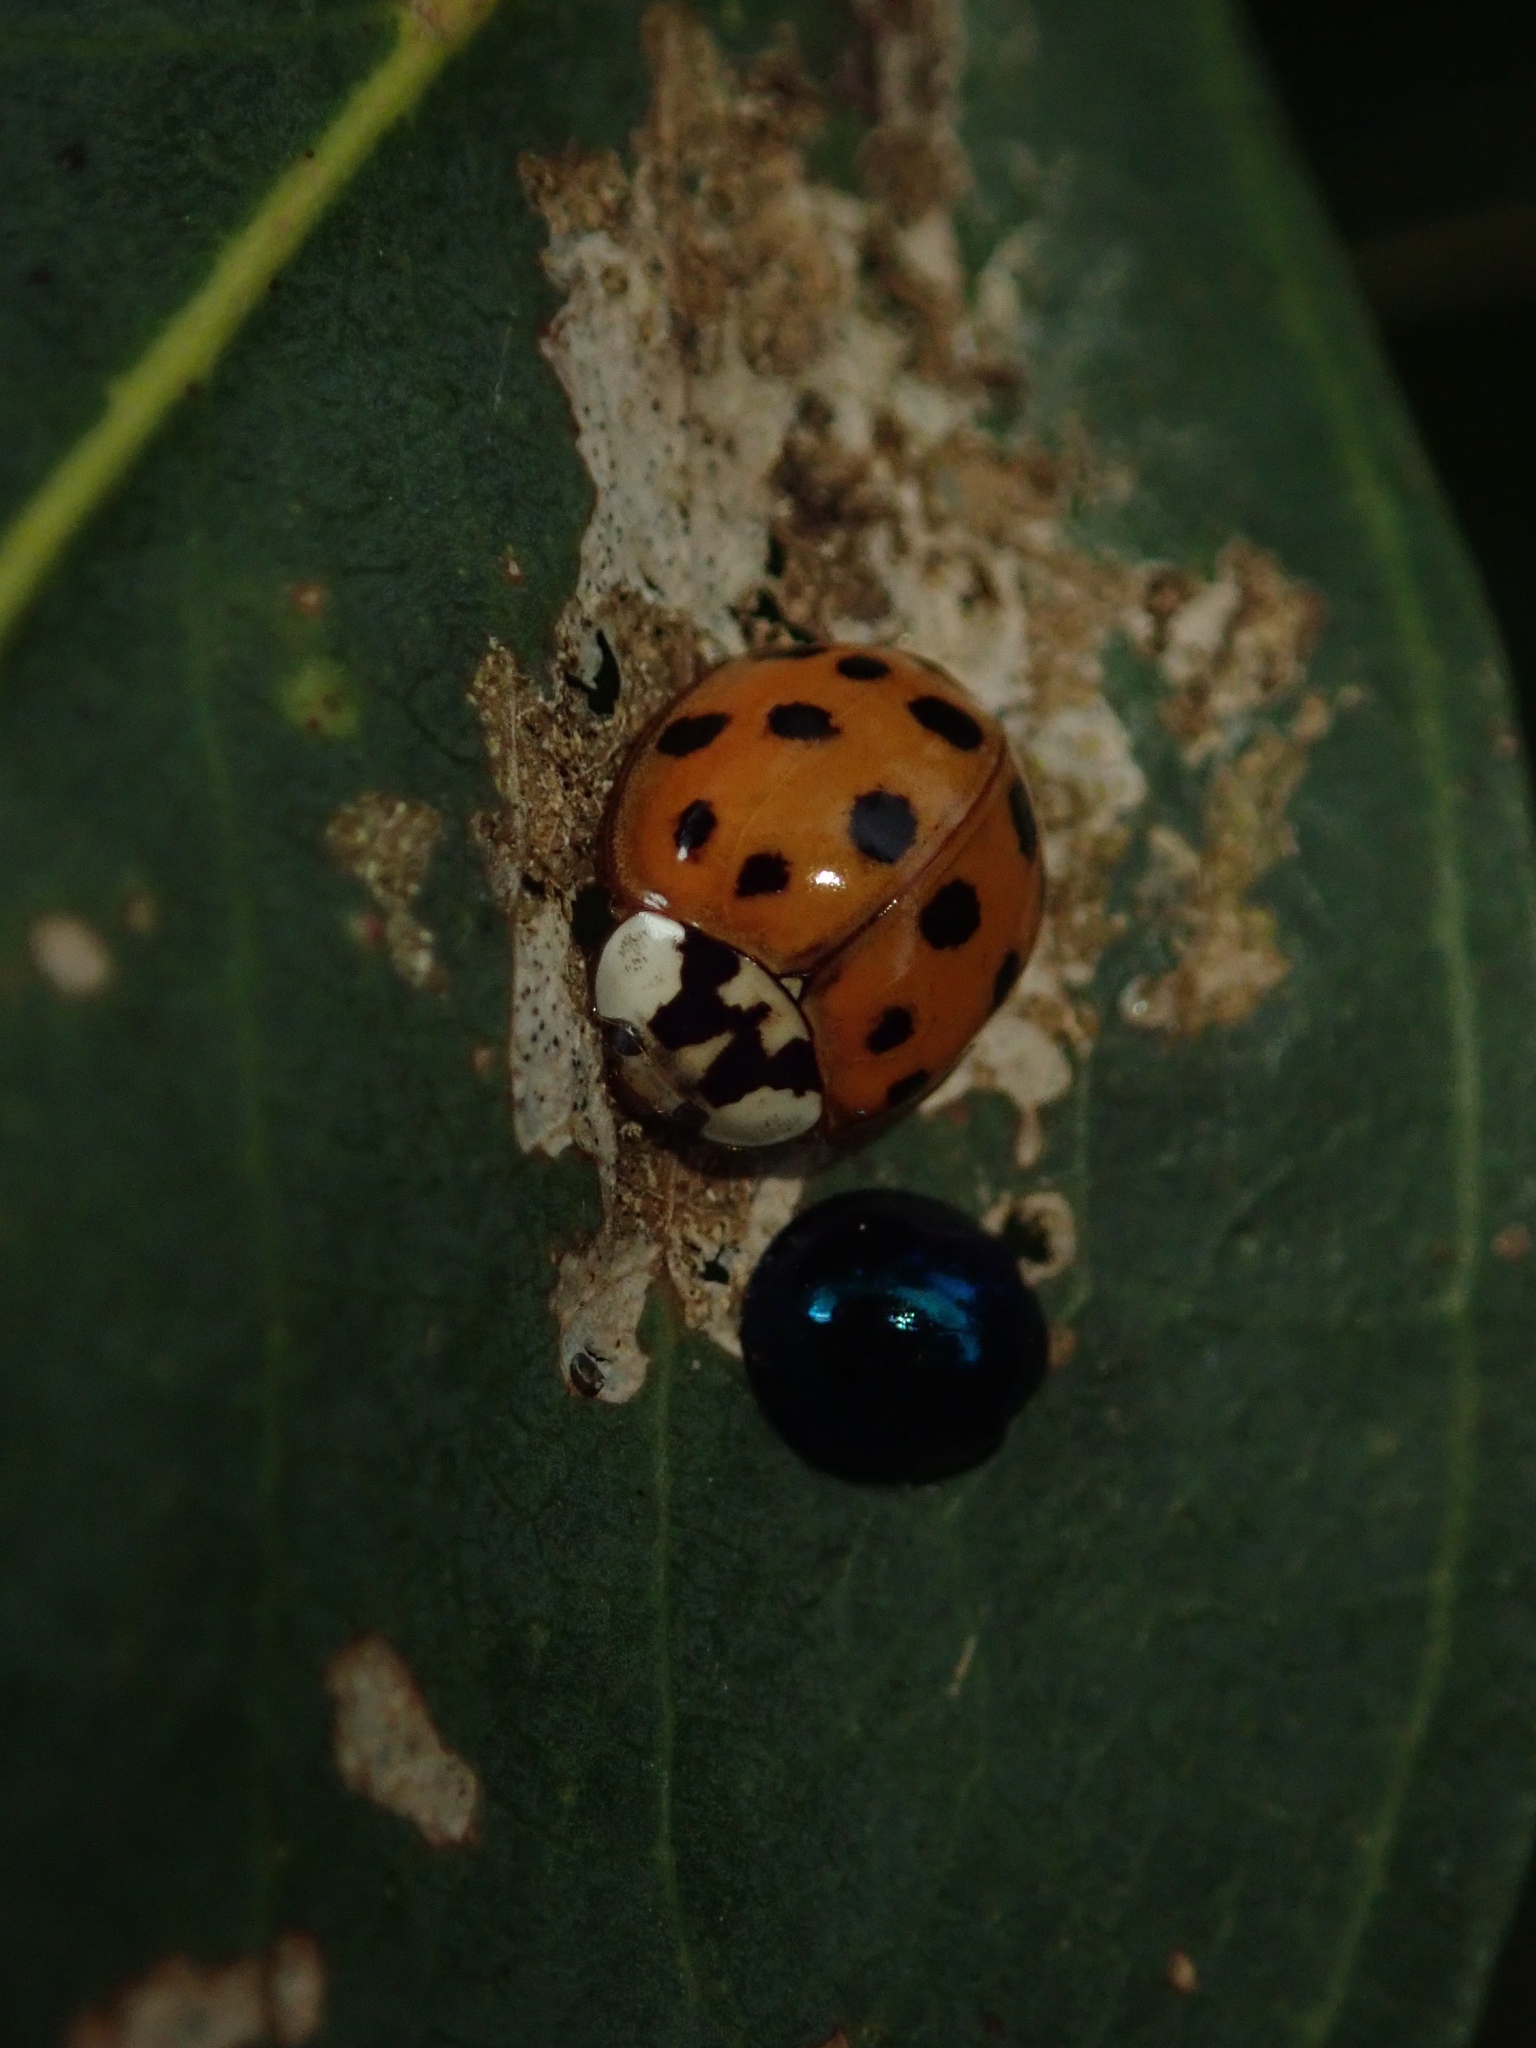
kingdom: Animalia
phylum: Arthropoda
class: Insecta
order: Coleoptera
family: Coccinellidae
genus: Harmonia
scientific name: Harmonia axyridis
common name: Harlequin ladybird
